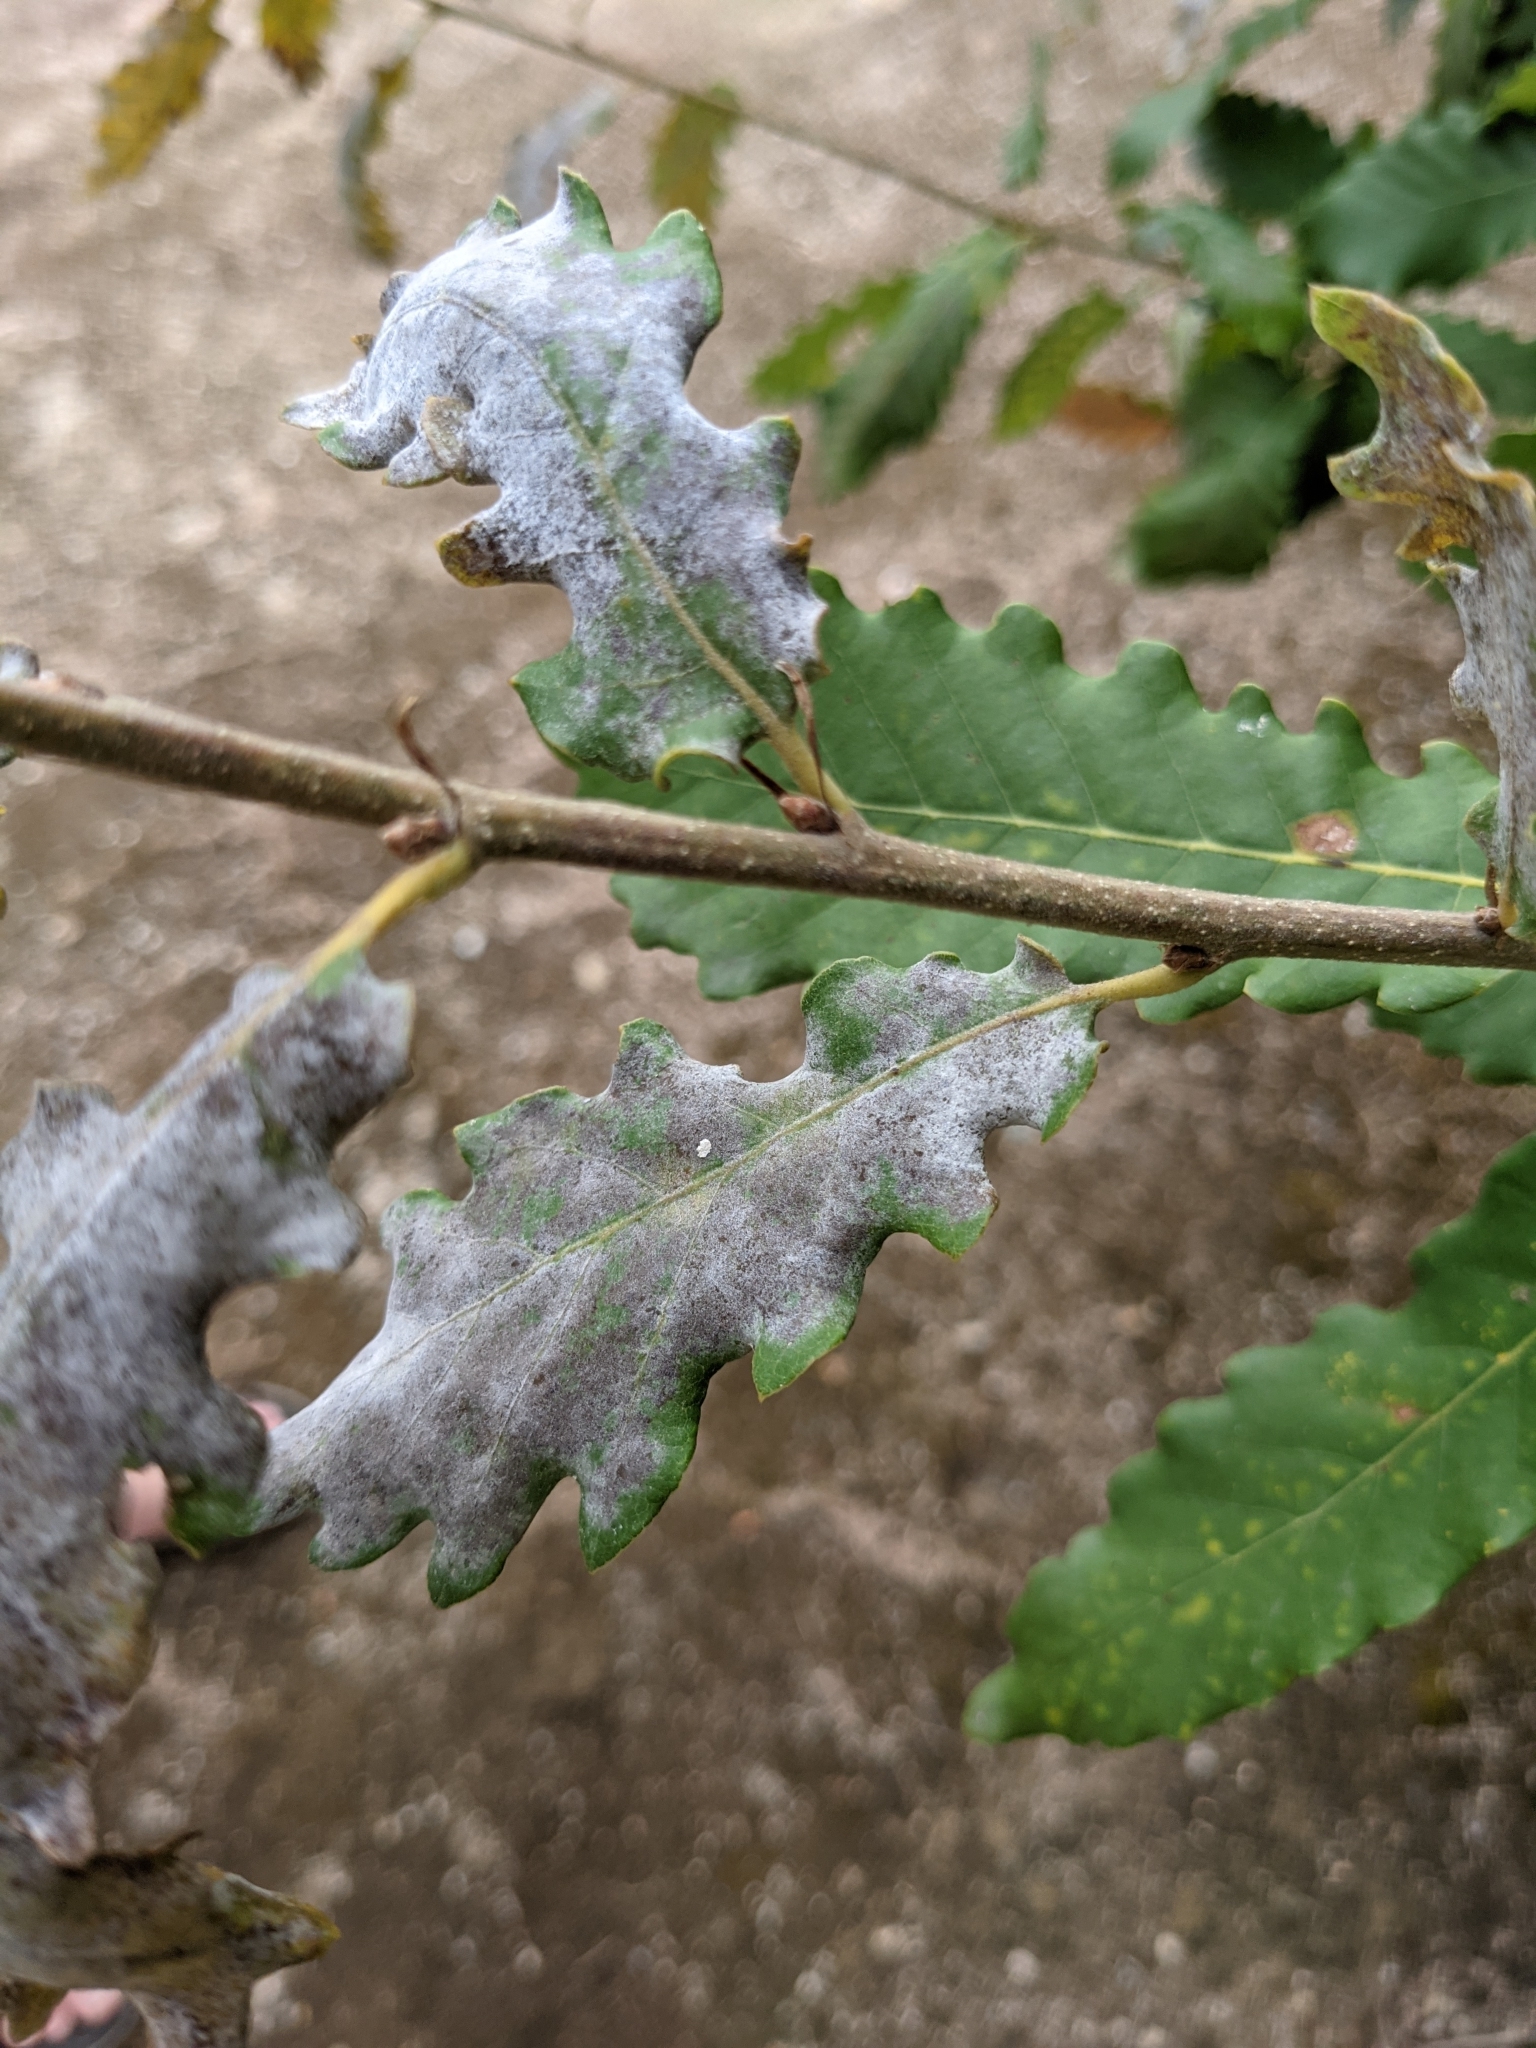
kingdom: Fungi
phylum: Ascomycota
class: Leotiomycetes
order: Helotiales
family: Erysiphaceae
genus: Erysiphe
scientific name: Erysiphe alphitoides
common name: Oak mildew
